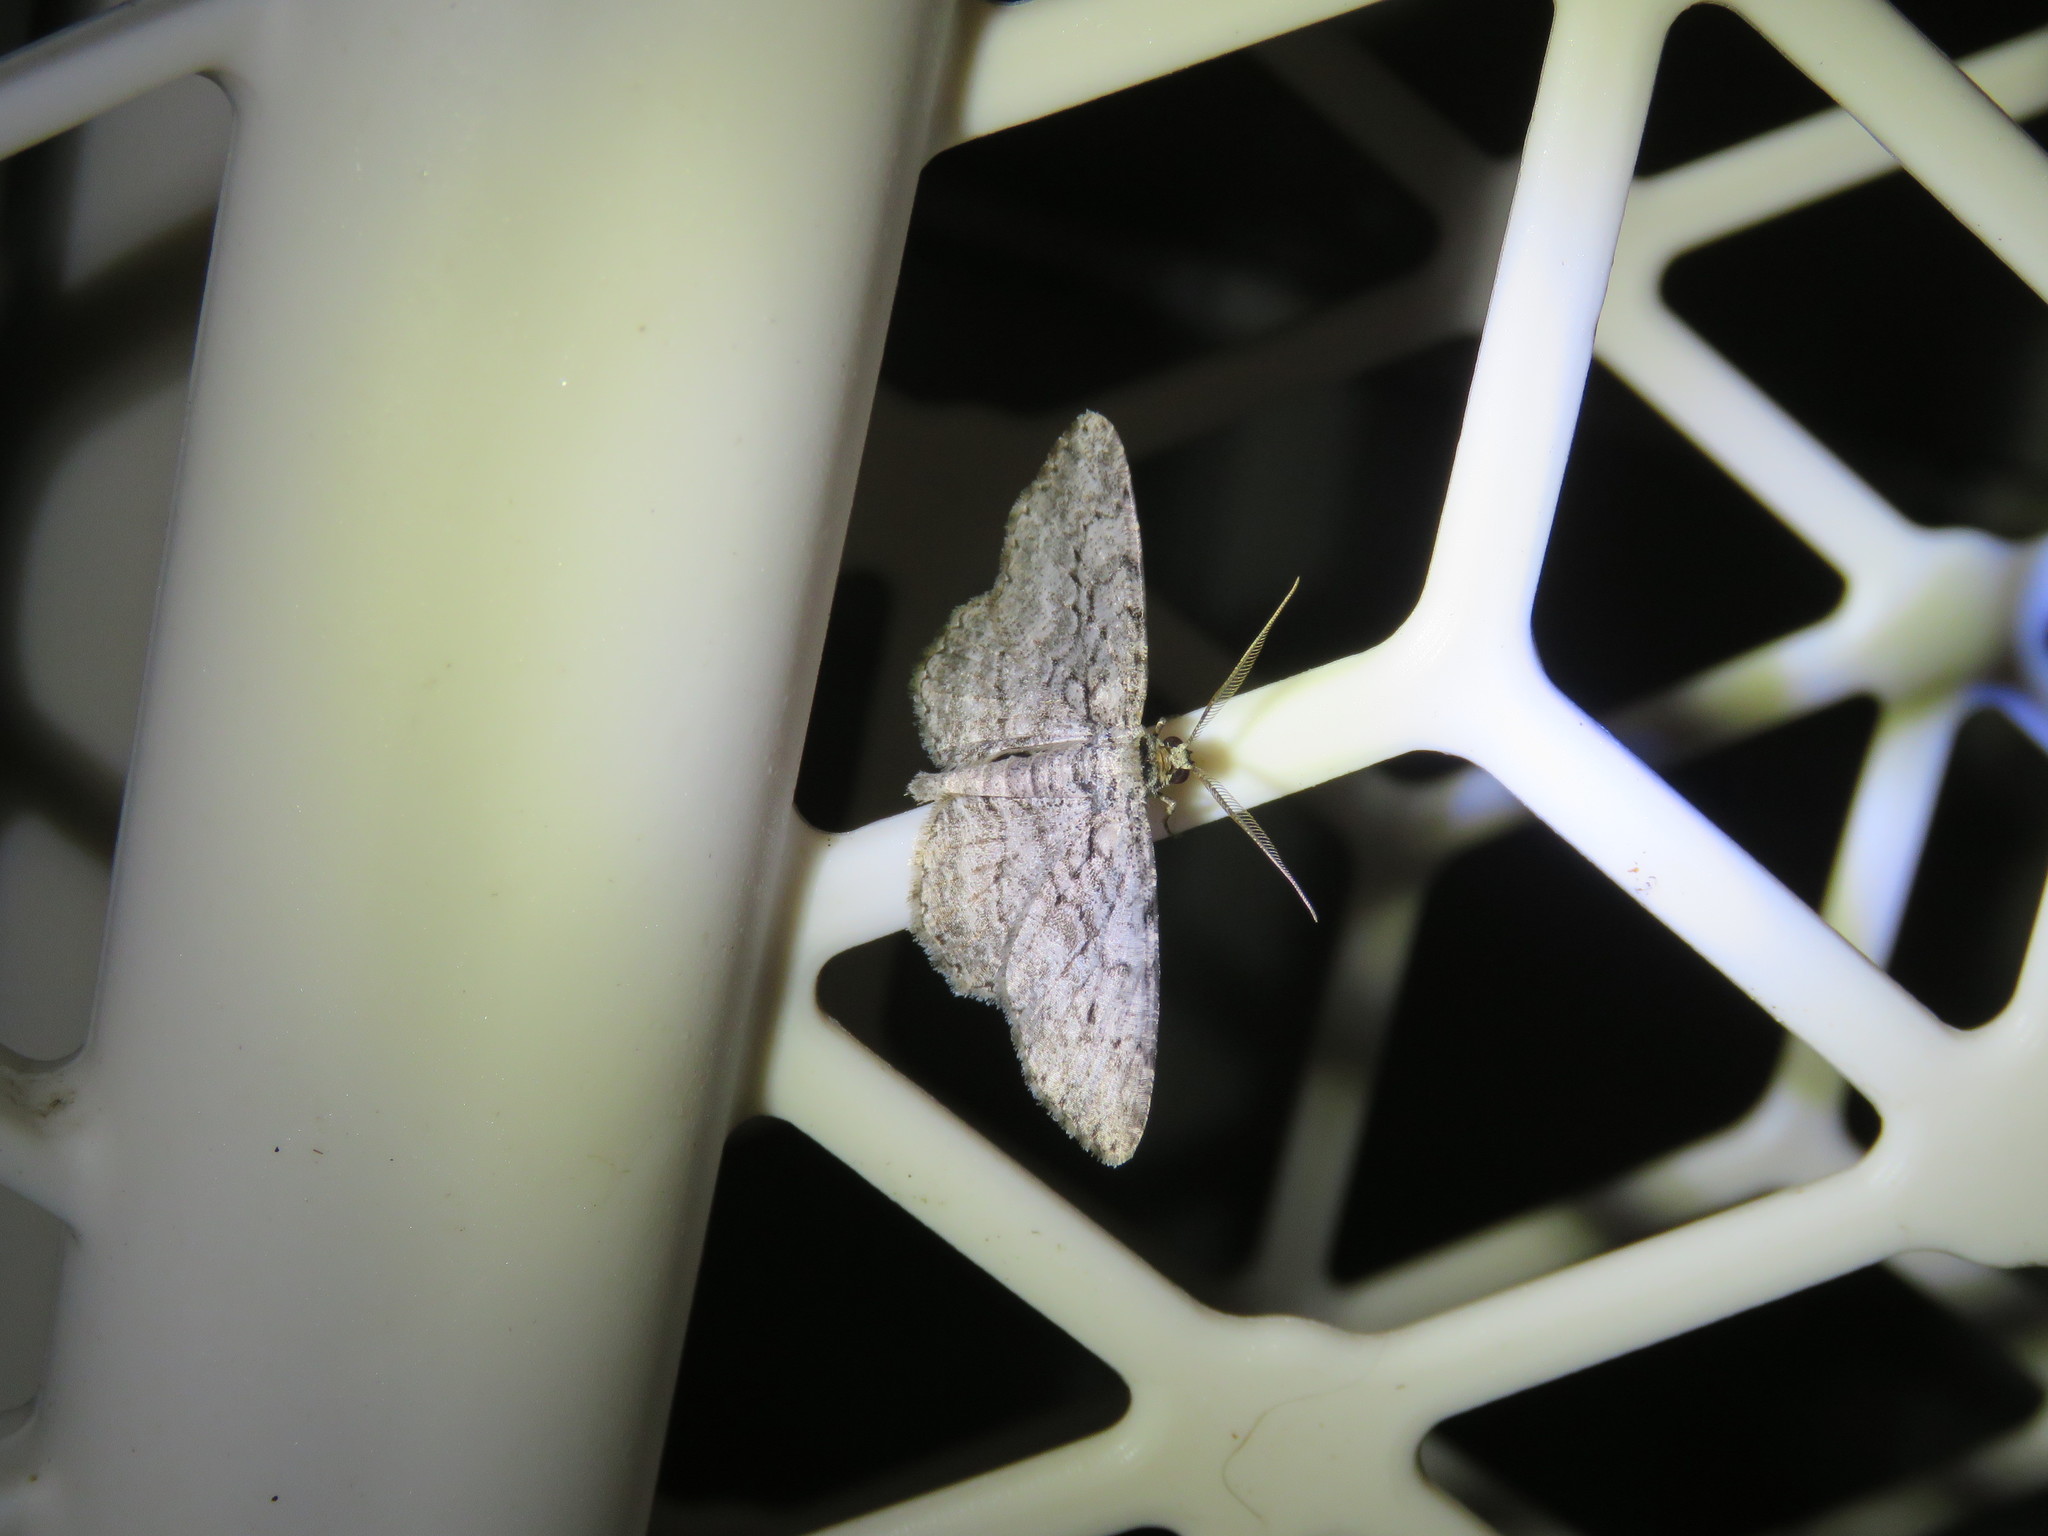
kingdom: Animalia
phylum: Arthropoda
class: Insecta
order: Lepidoptera
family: Geometridae
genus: Anavitrinella
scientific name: Anavitrinella pampinaria
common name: Common gray
